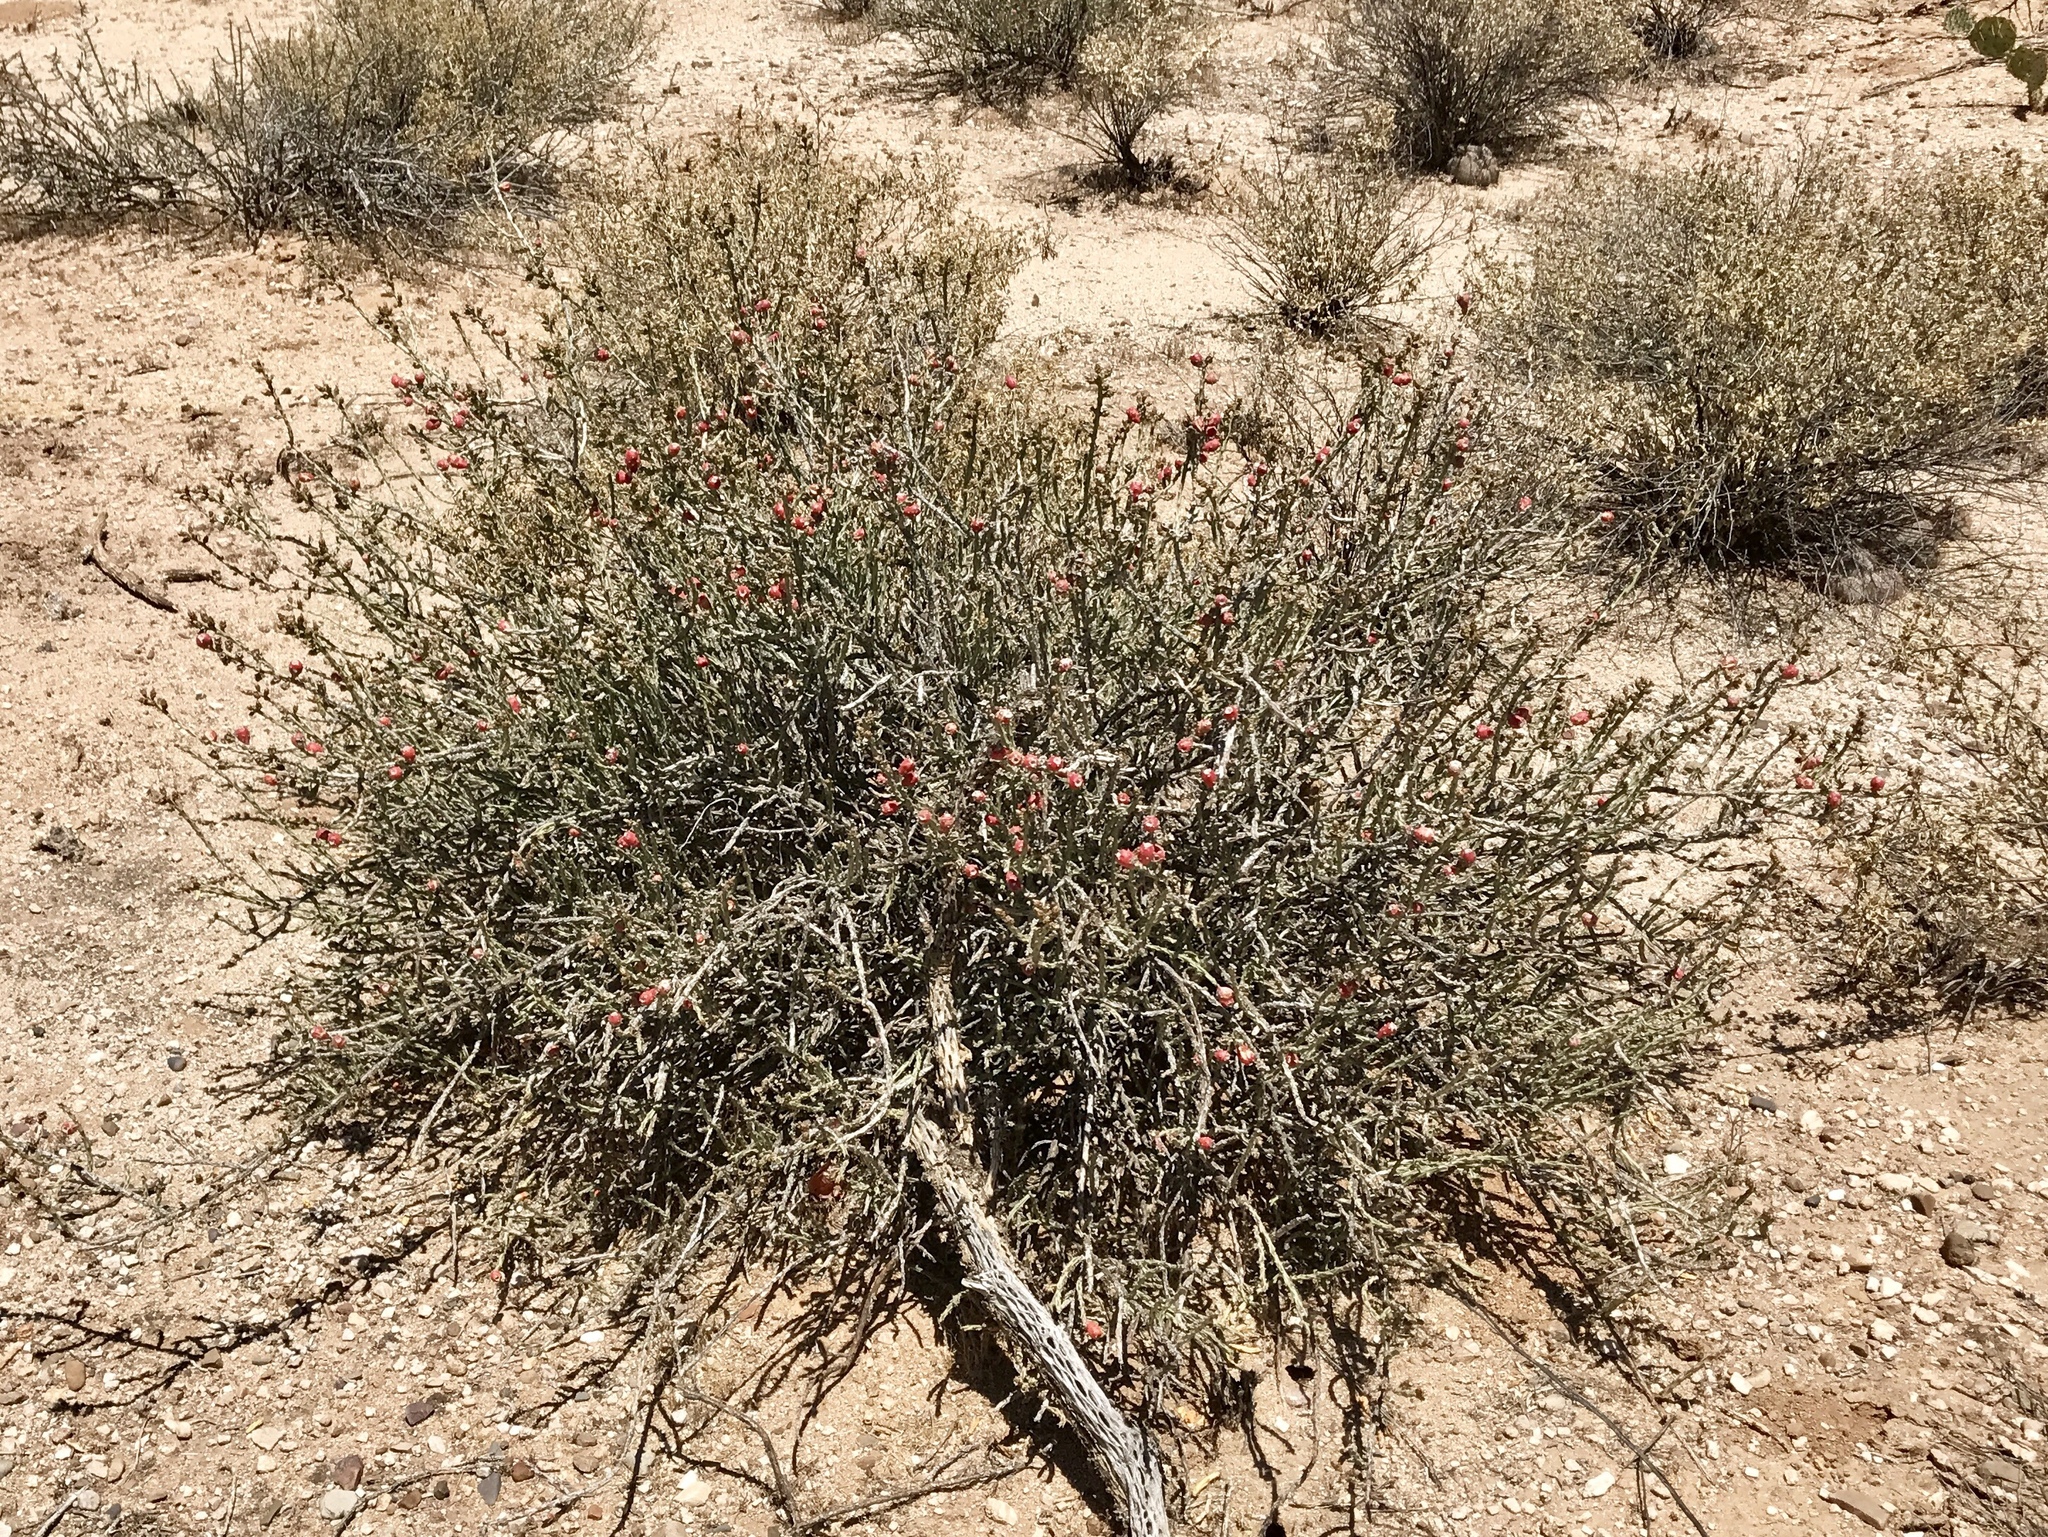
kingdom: Plantae
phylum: Tracheophyta
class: Magnoliopsida
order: Caryophyllales
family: Cactaceae
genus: Cylindropuntia
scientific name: Cylindropuntia leptocaulis
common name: Christmas cactus
